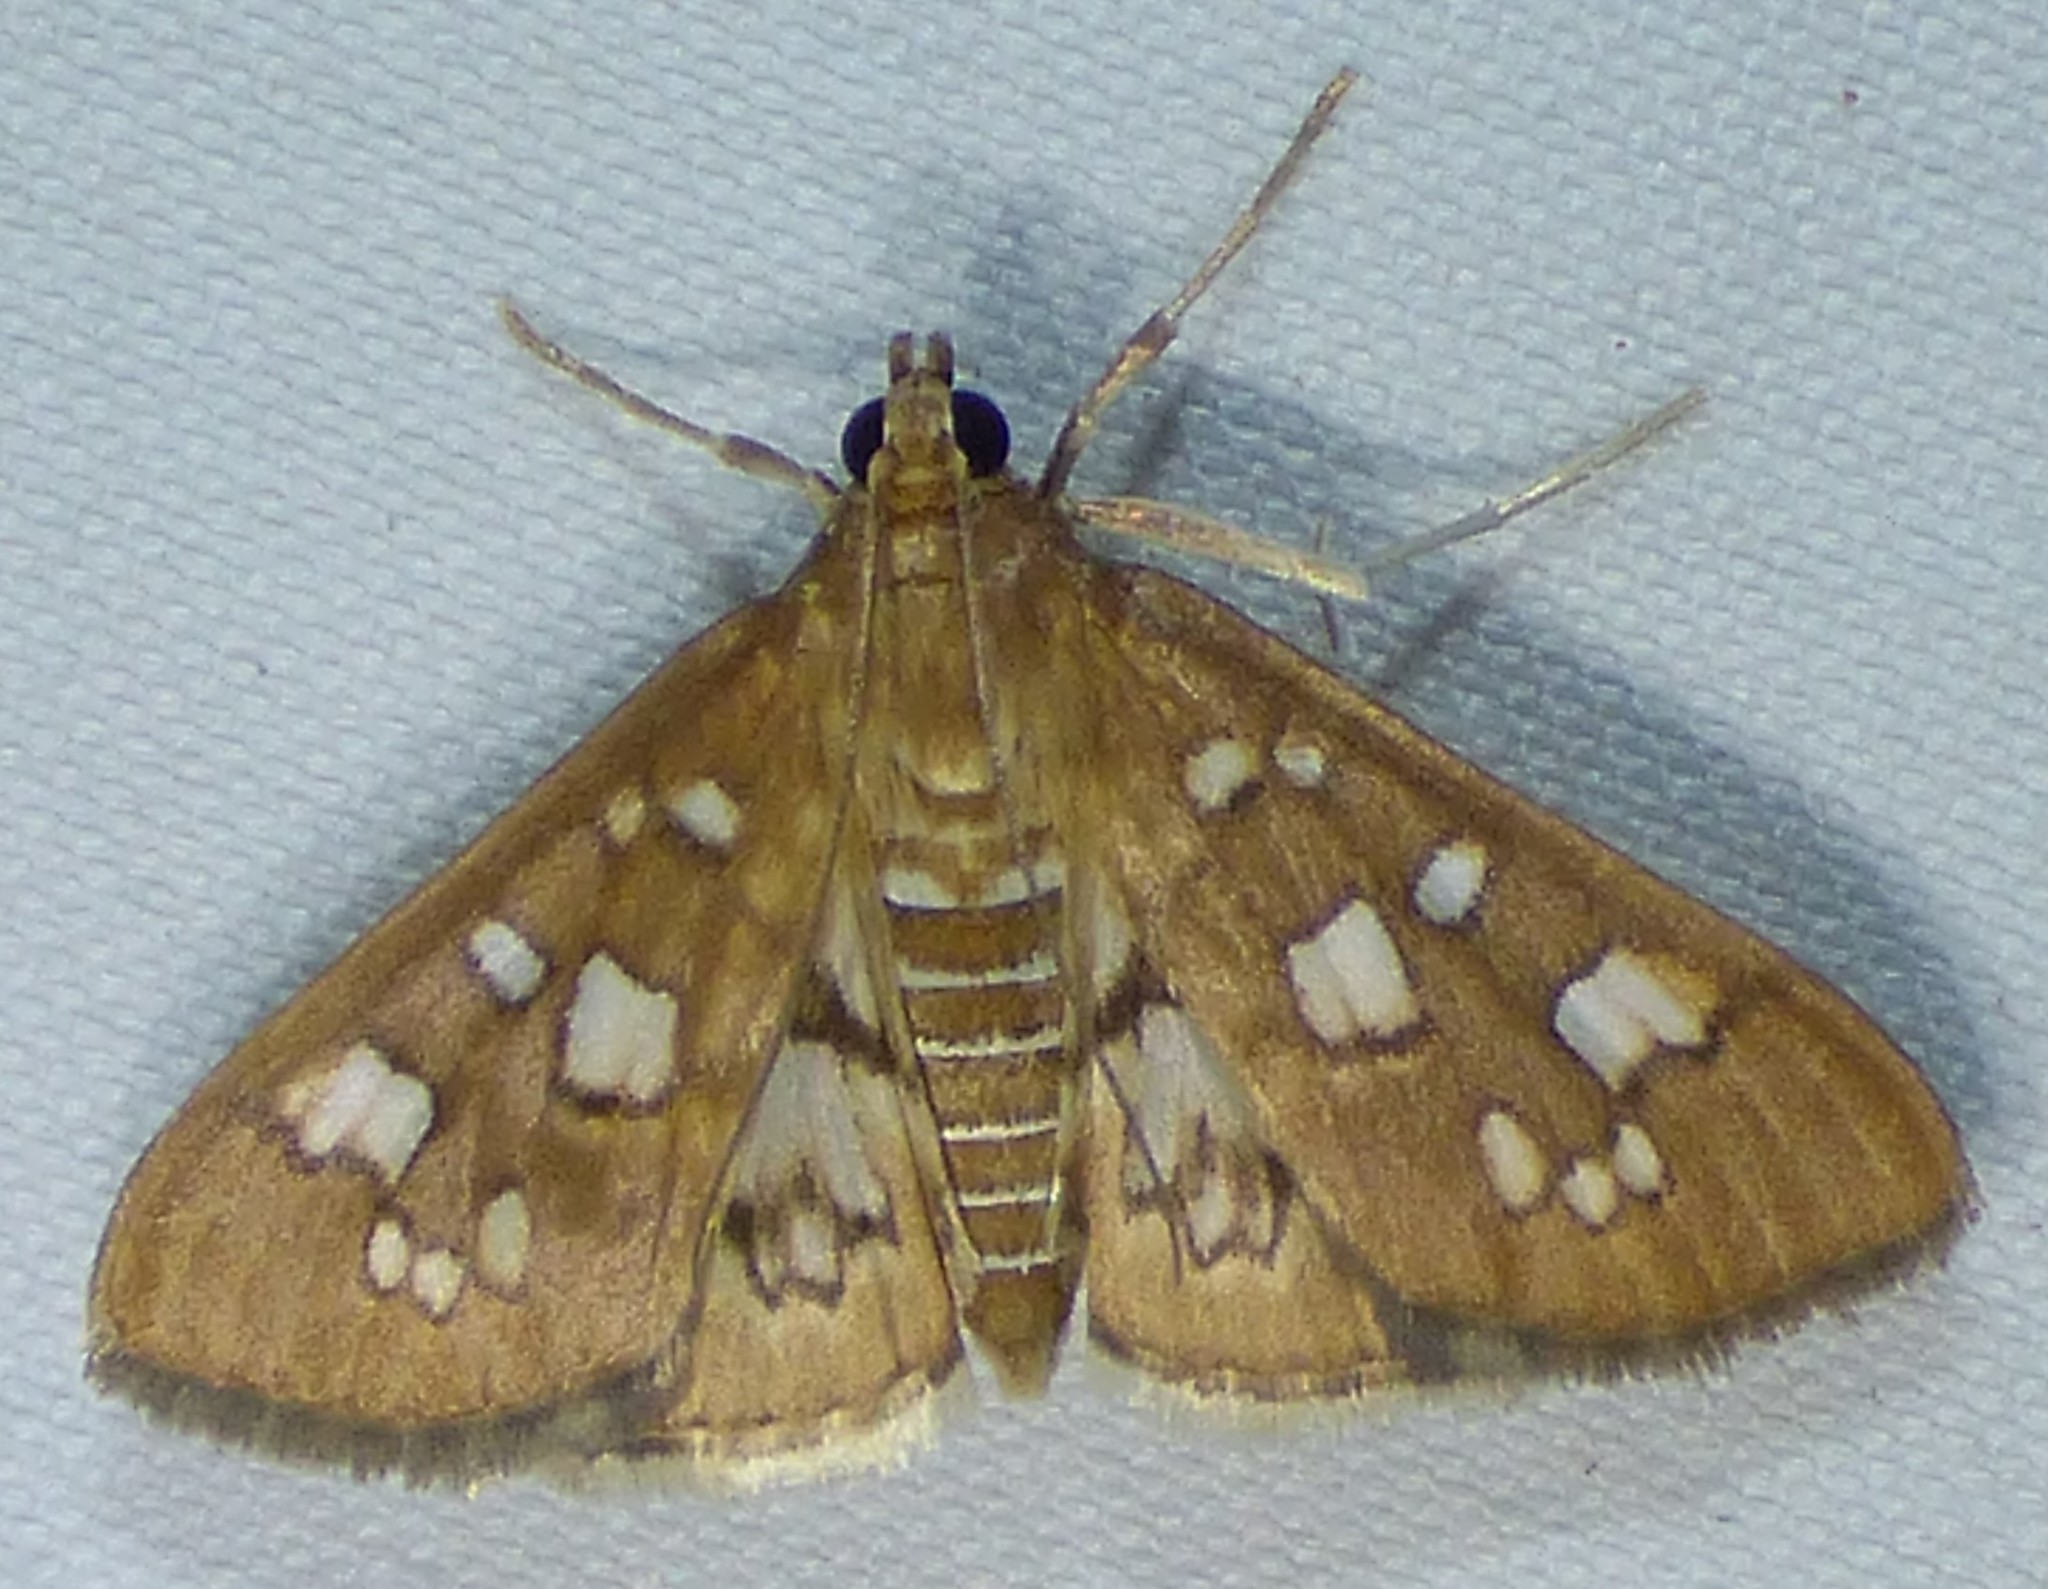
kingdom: Animalia
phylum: Arthropoda
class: Insecta
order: Lepidoptera
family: Crambidae
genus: Samea
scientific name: Samea baccatalis
